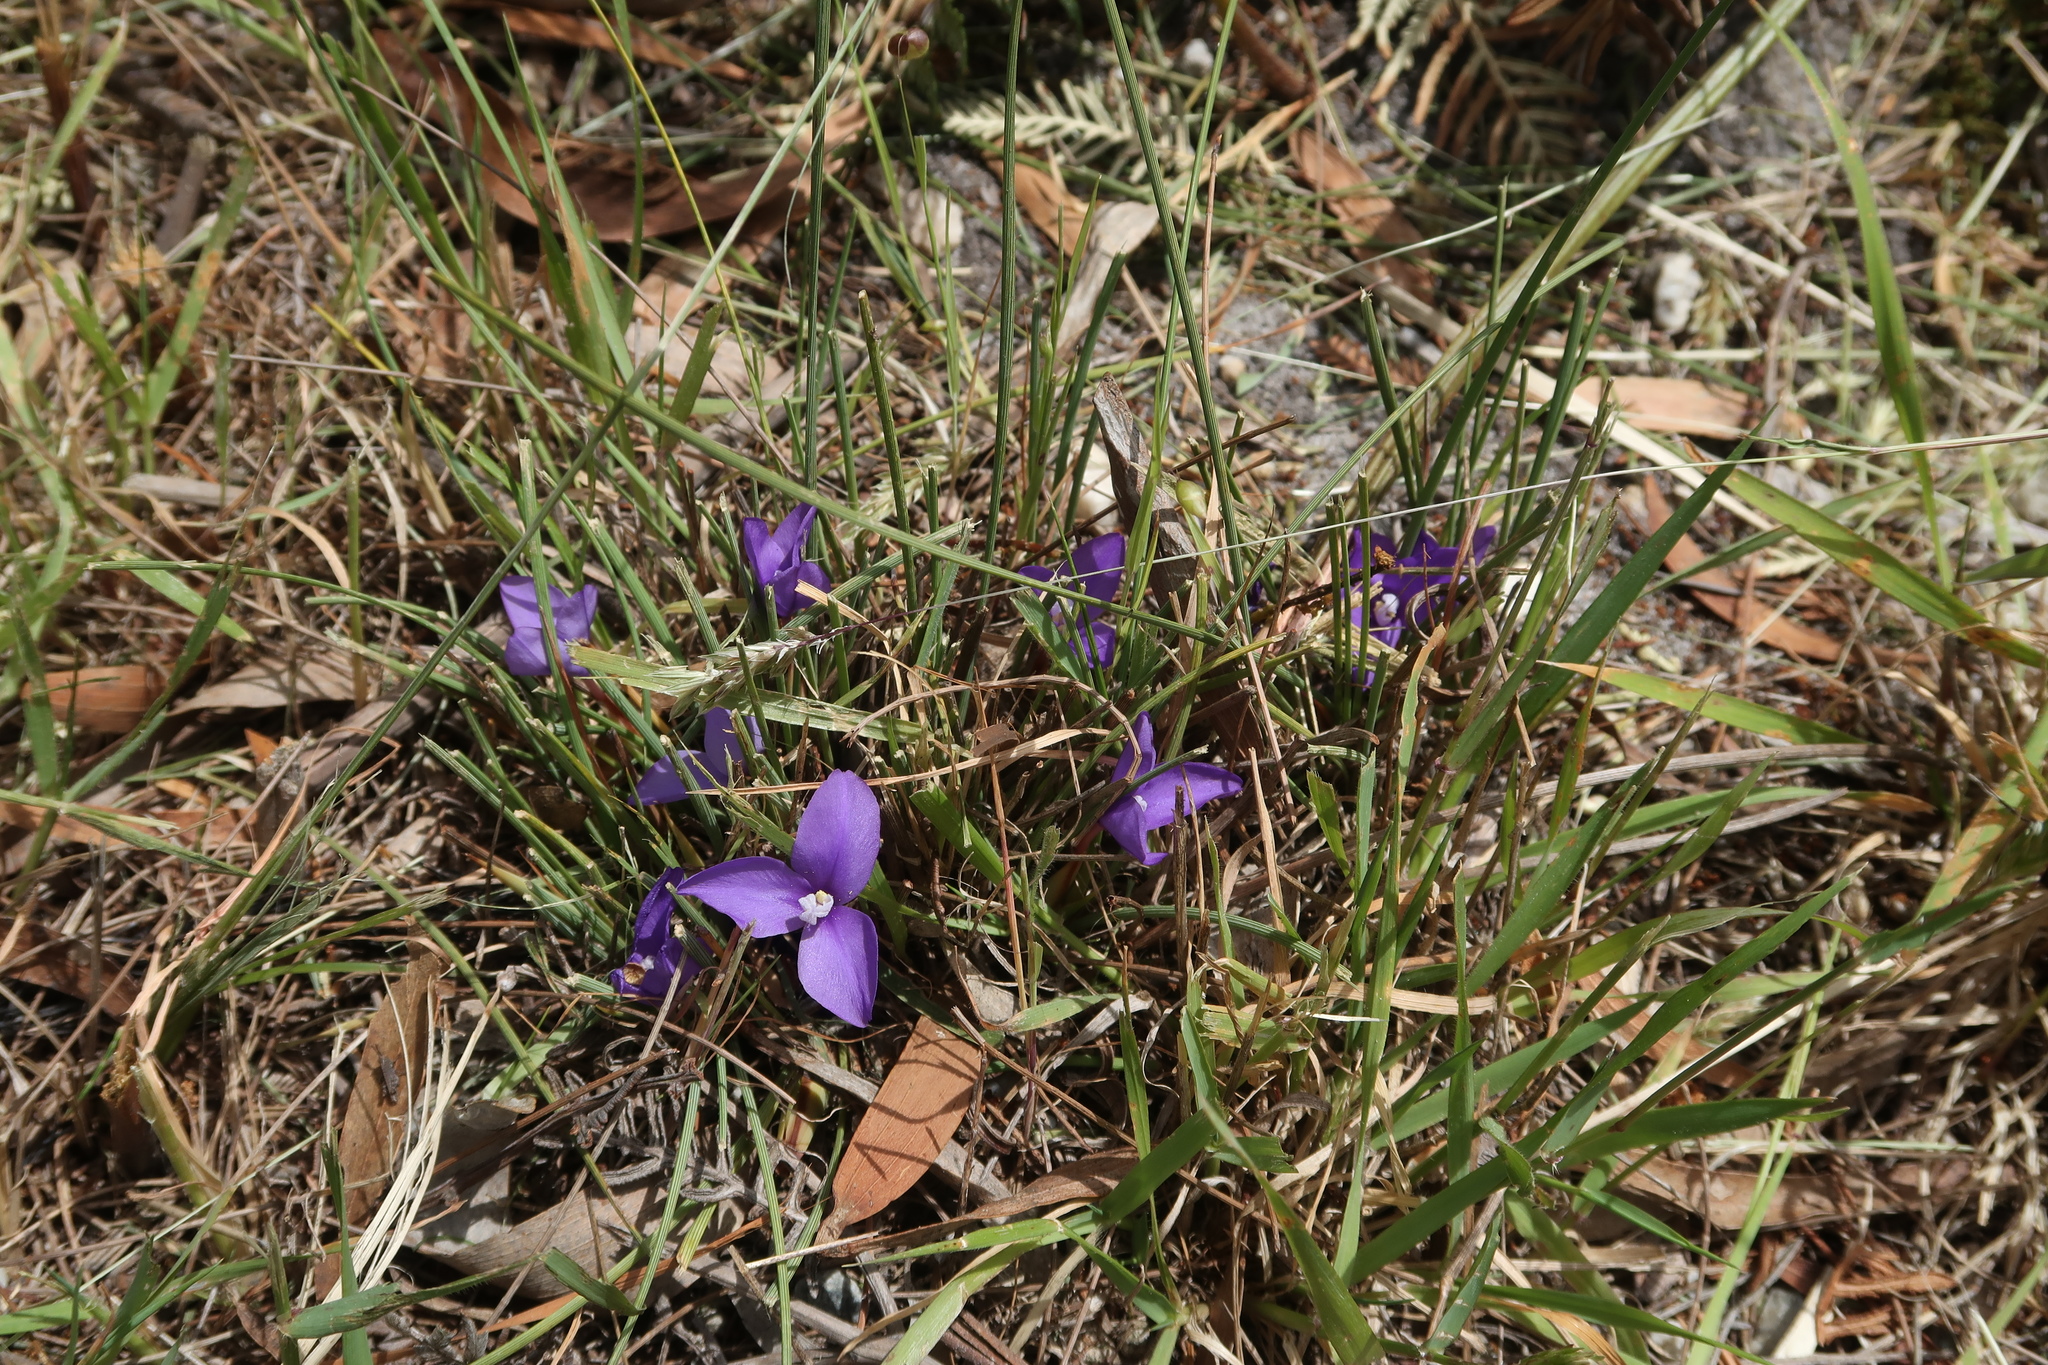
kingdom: Plantae
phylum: Tracheophyta
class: Liliopsida
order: Asparagales
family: Iridaceae
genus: Patersonia
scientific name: Patersonia fragilis
